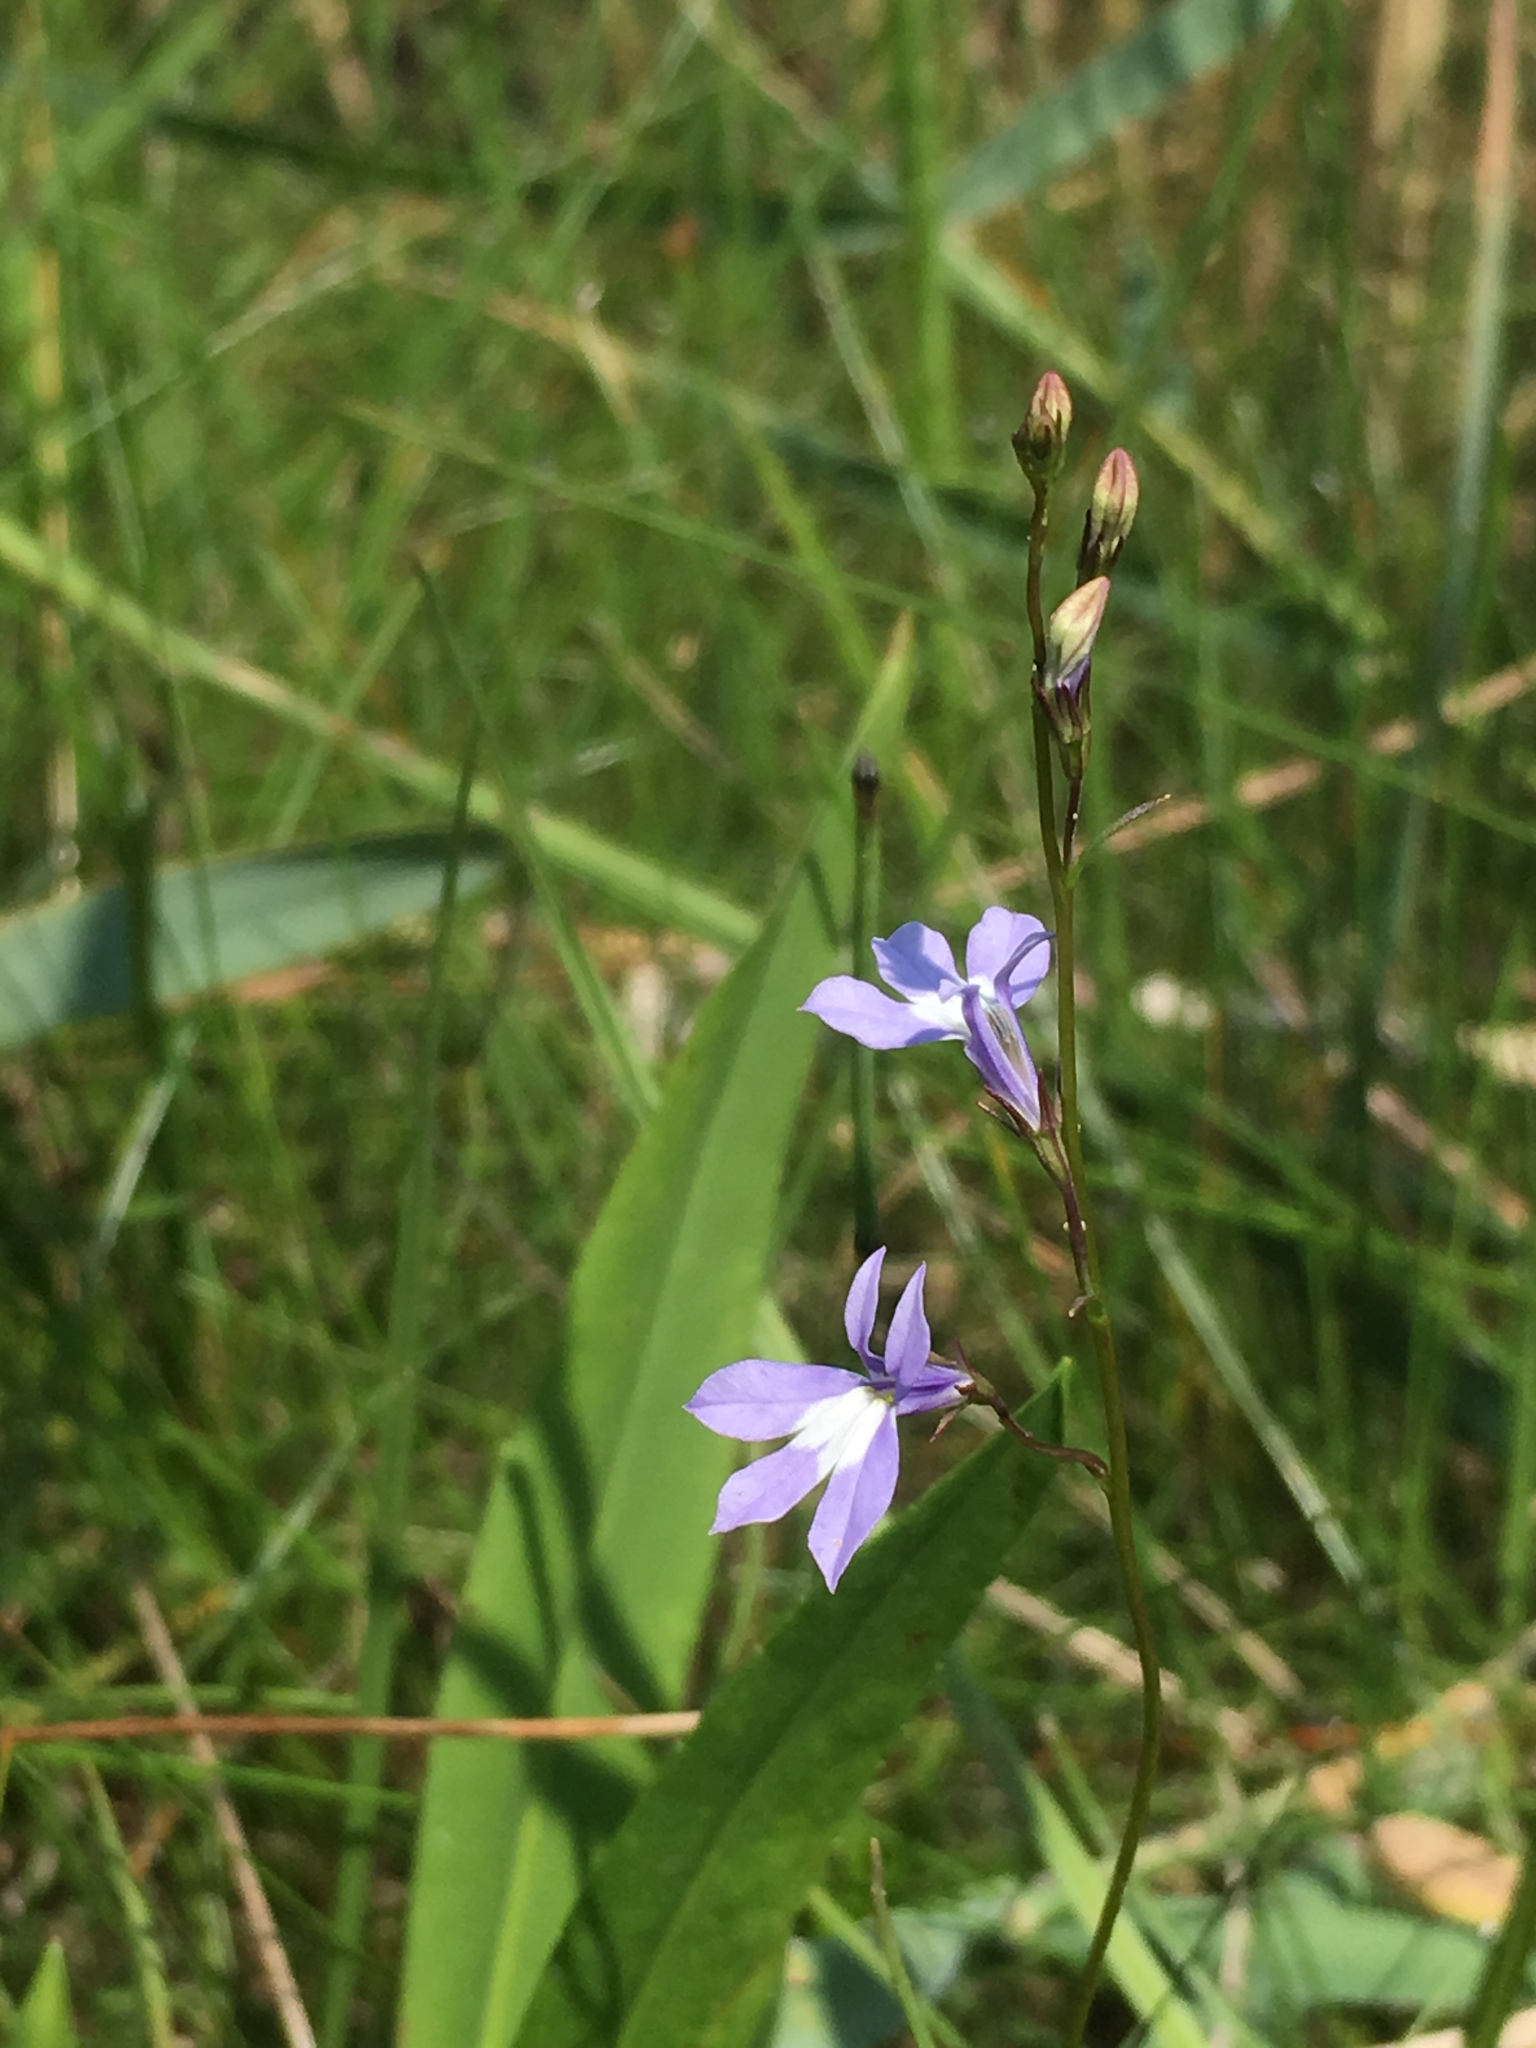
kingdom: Plantae
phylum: Tracheophyta
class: Magnoliopsida
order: Asterales
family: Campanulaceae
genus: Lobelia
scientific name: Lobelia kalmii
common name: Kalm's lobelia
